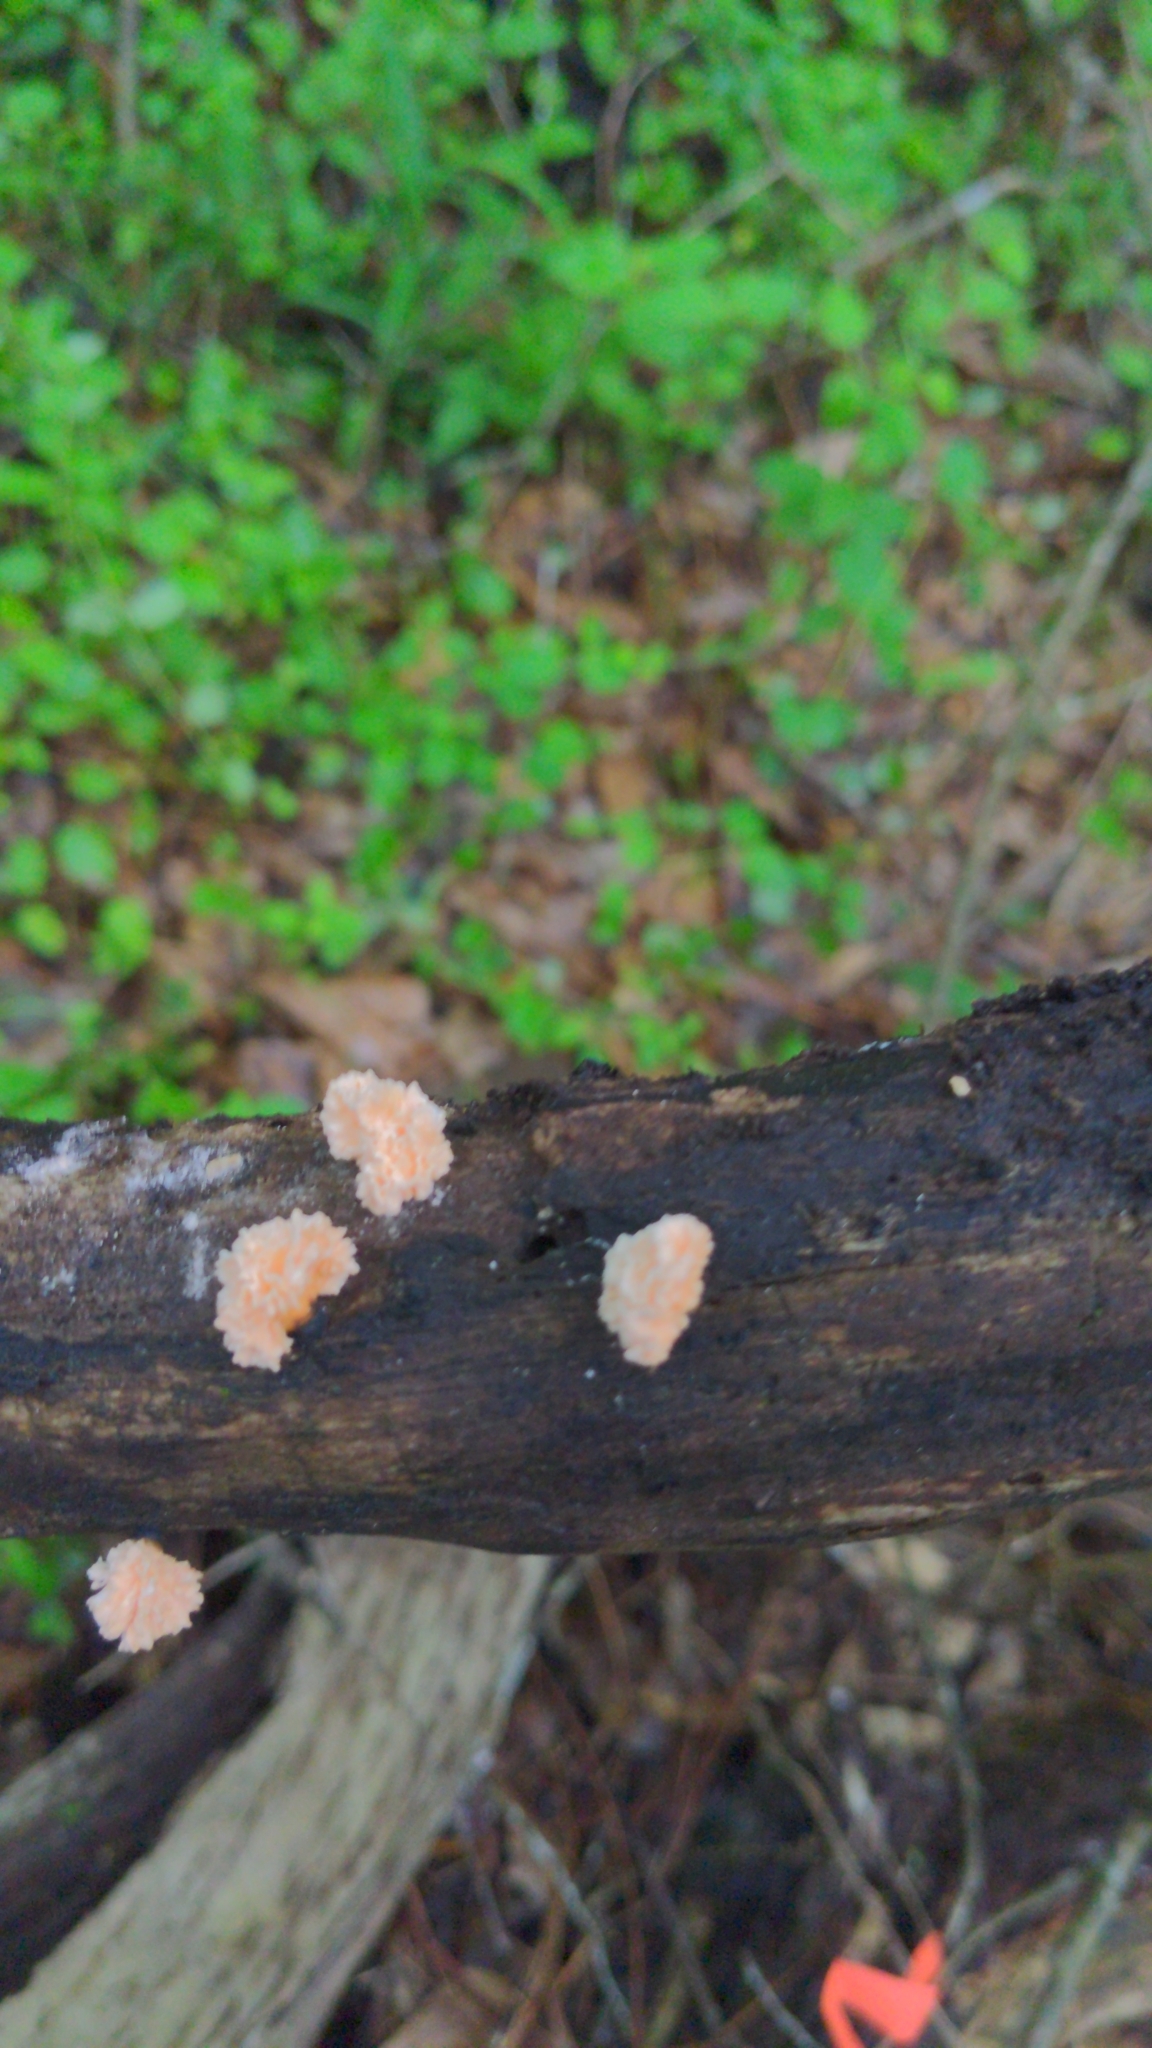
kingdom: Fungi
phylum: Ascomycota
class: Sordariomycetes
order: Xylariales
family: Xylariaceae
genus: Xylaria
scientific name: Xylaria cubensis
